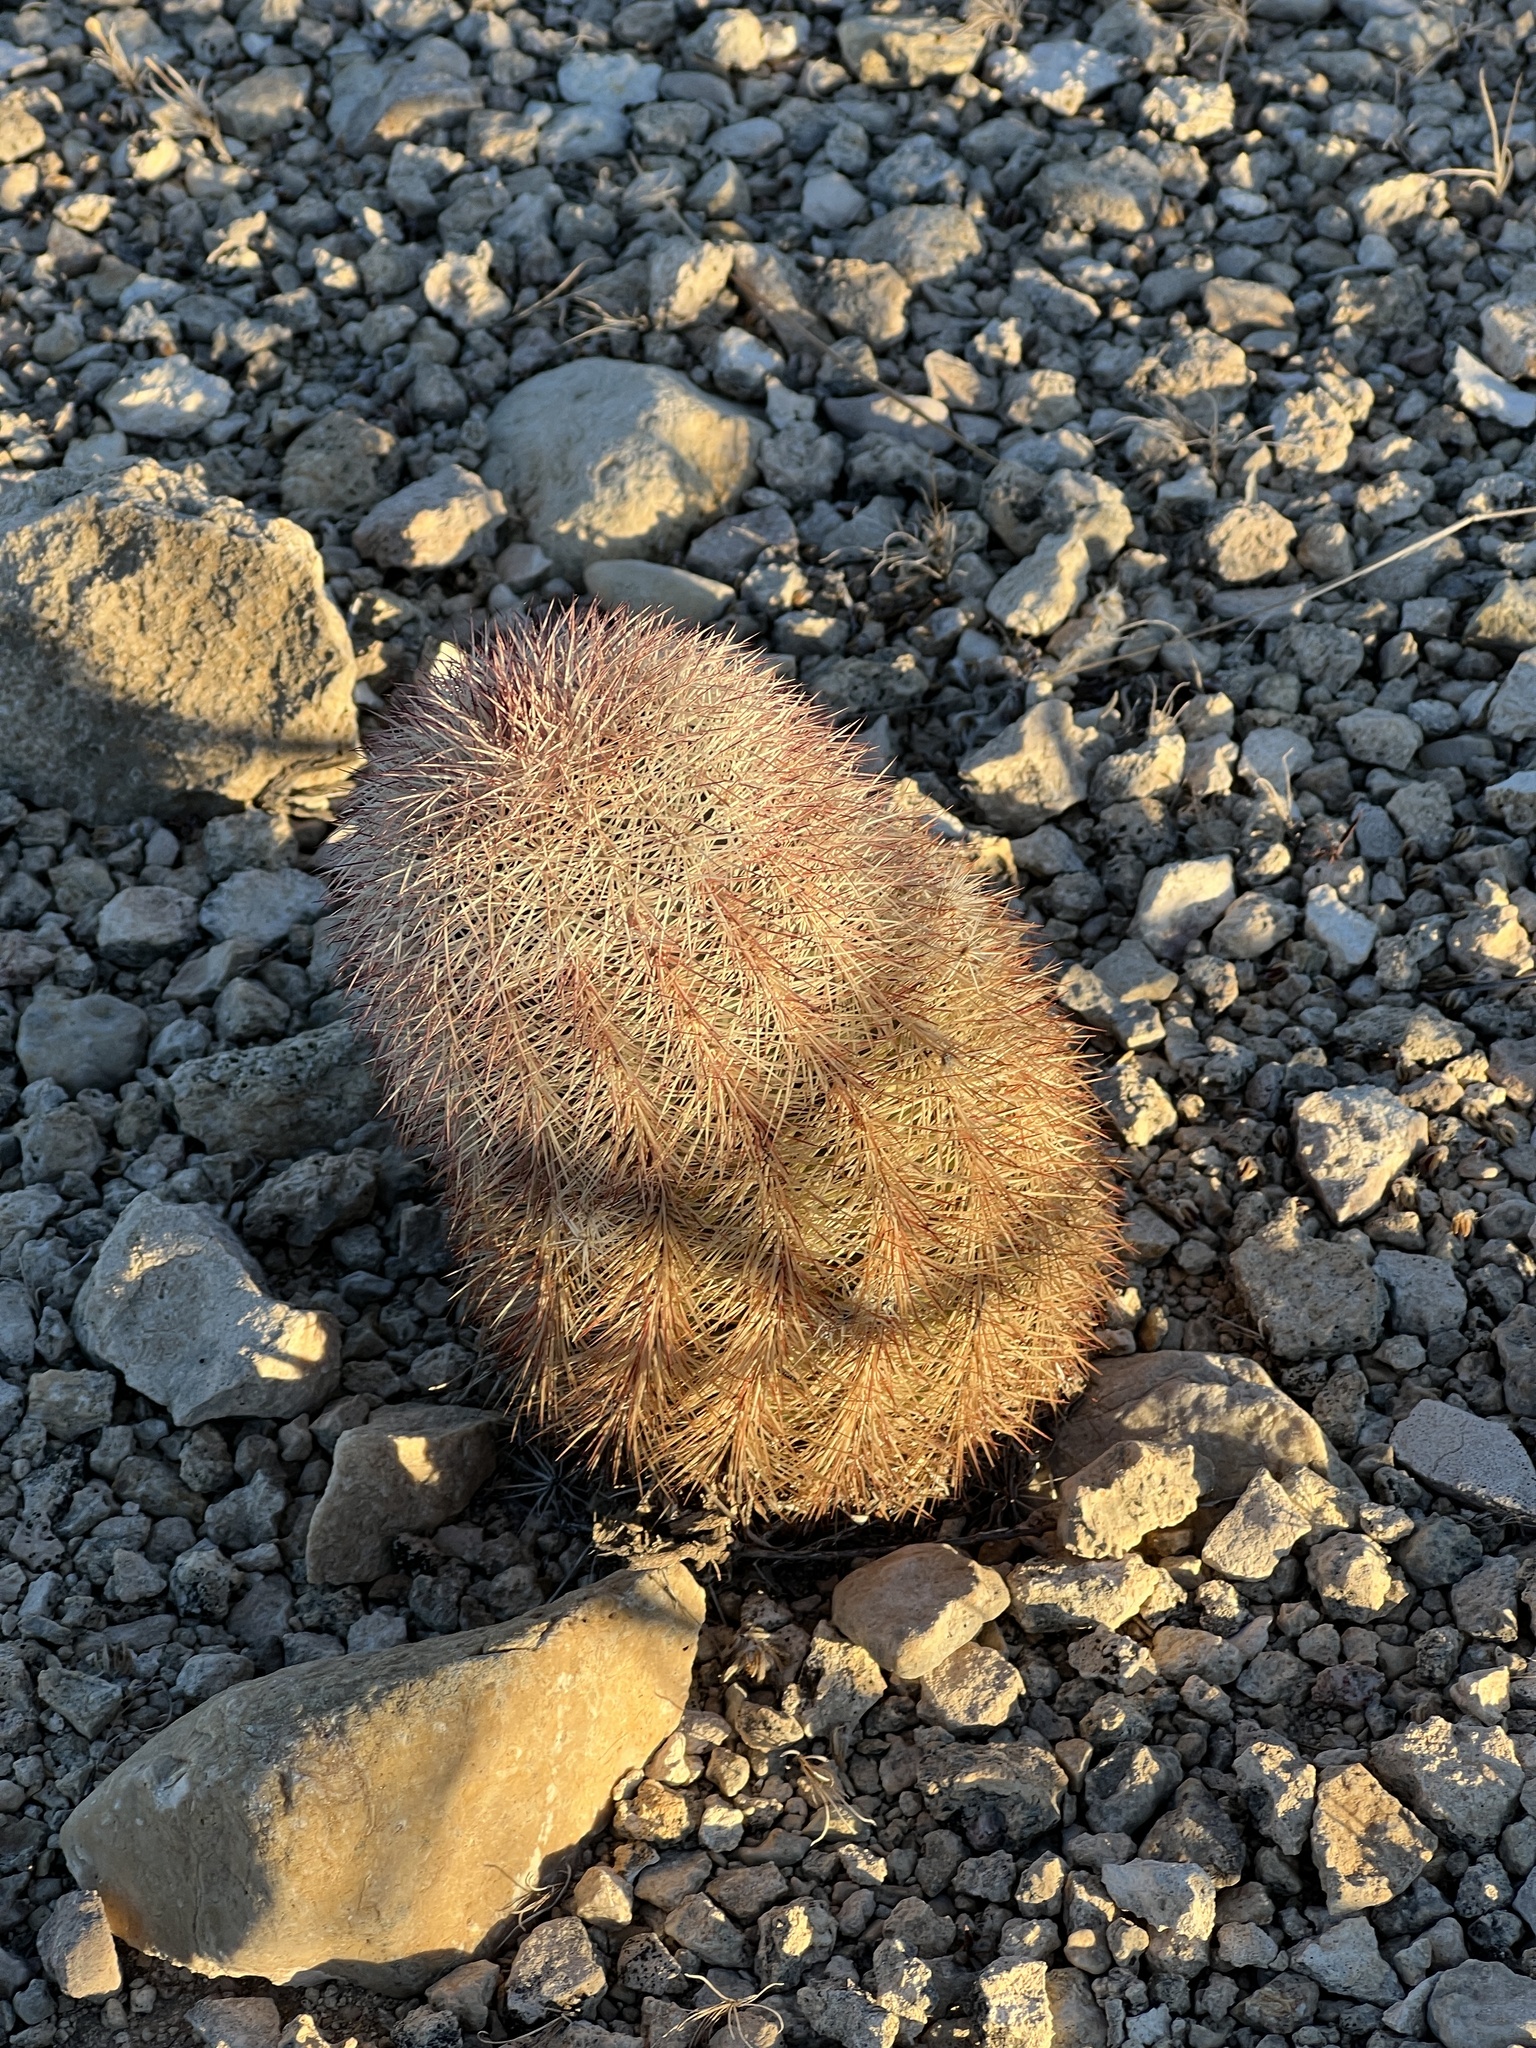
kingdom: Plantae
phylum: Tracheophyta
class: Magnoliopsida
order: Caryophyllales
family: Cactaceae
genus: Echinocereus
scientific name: Echinocereus dasyacanthus
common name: Spiny hedgehog cactus
